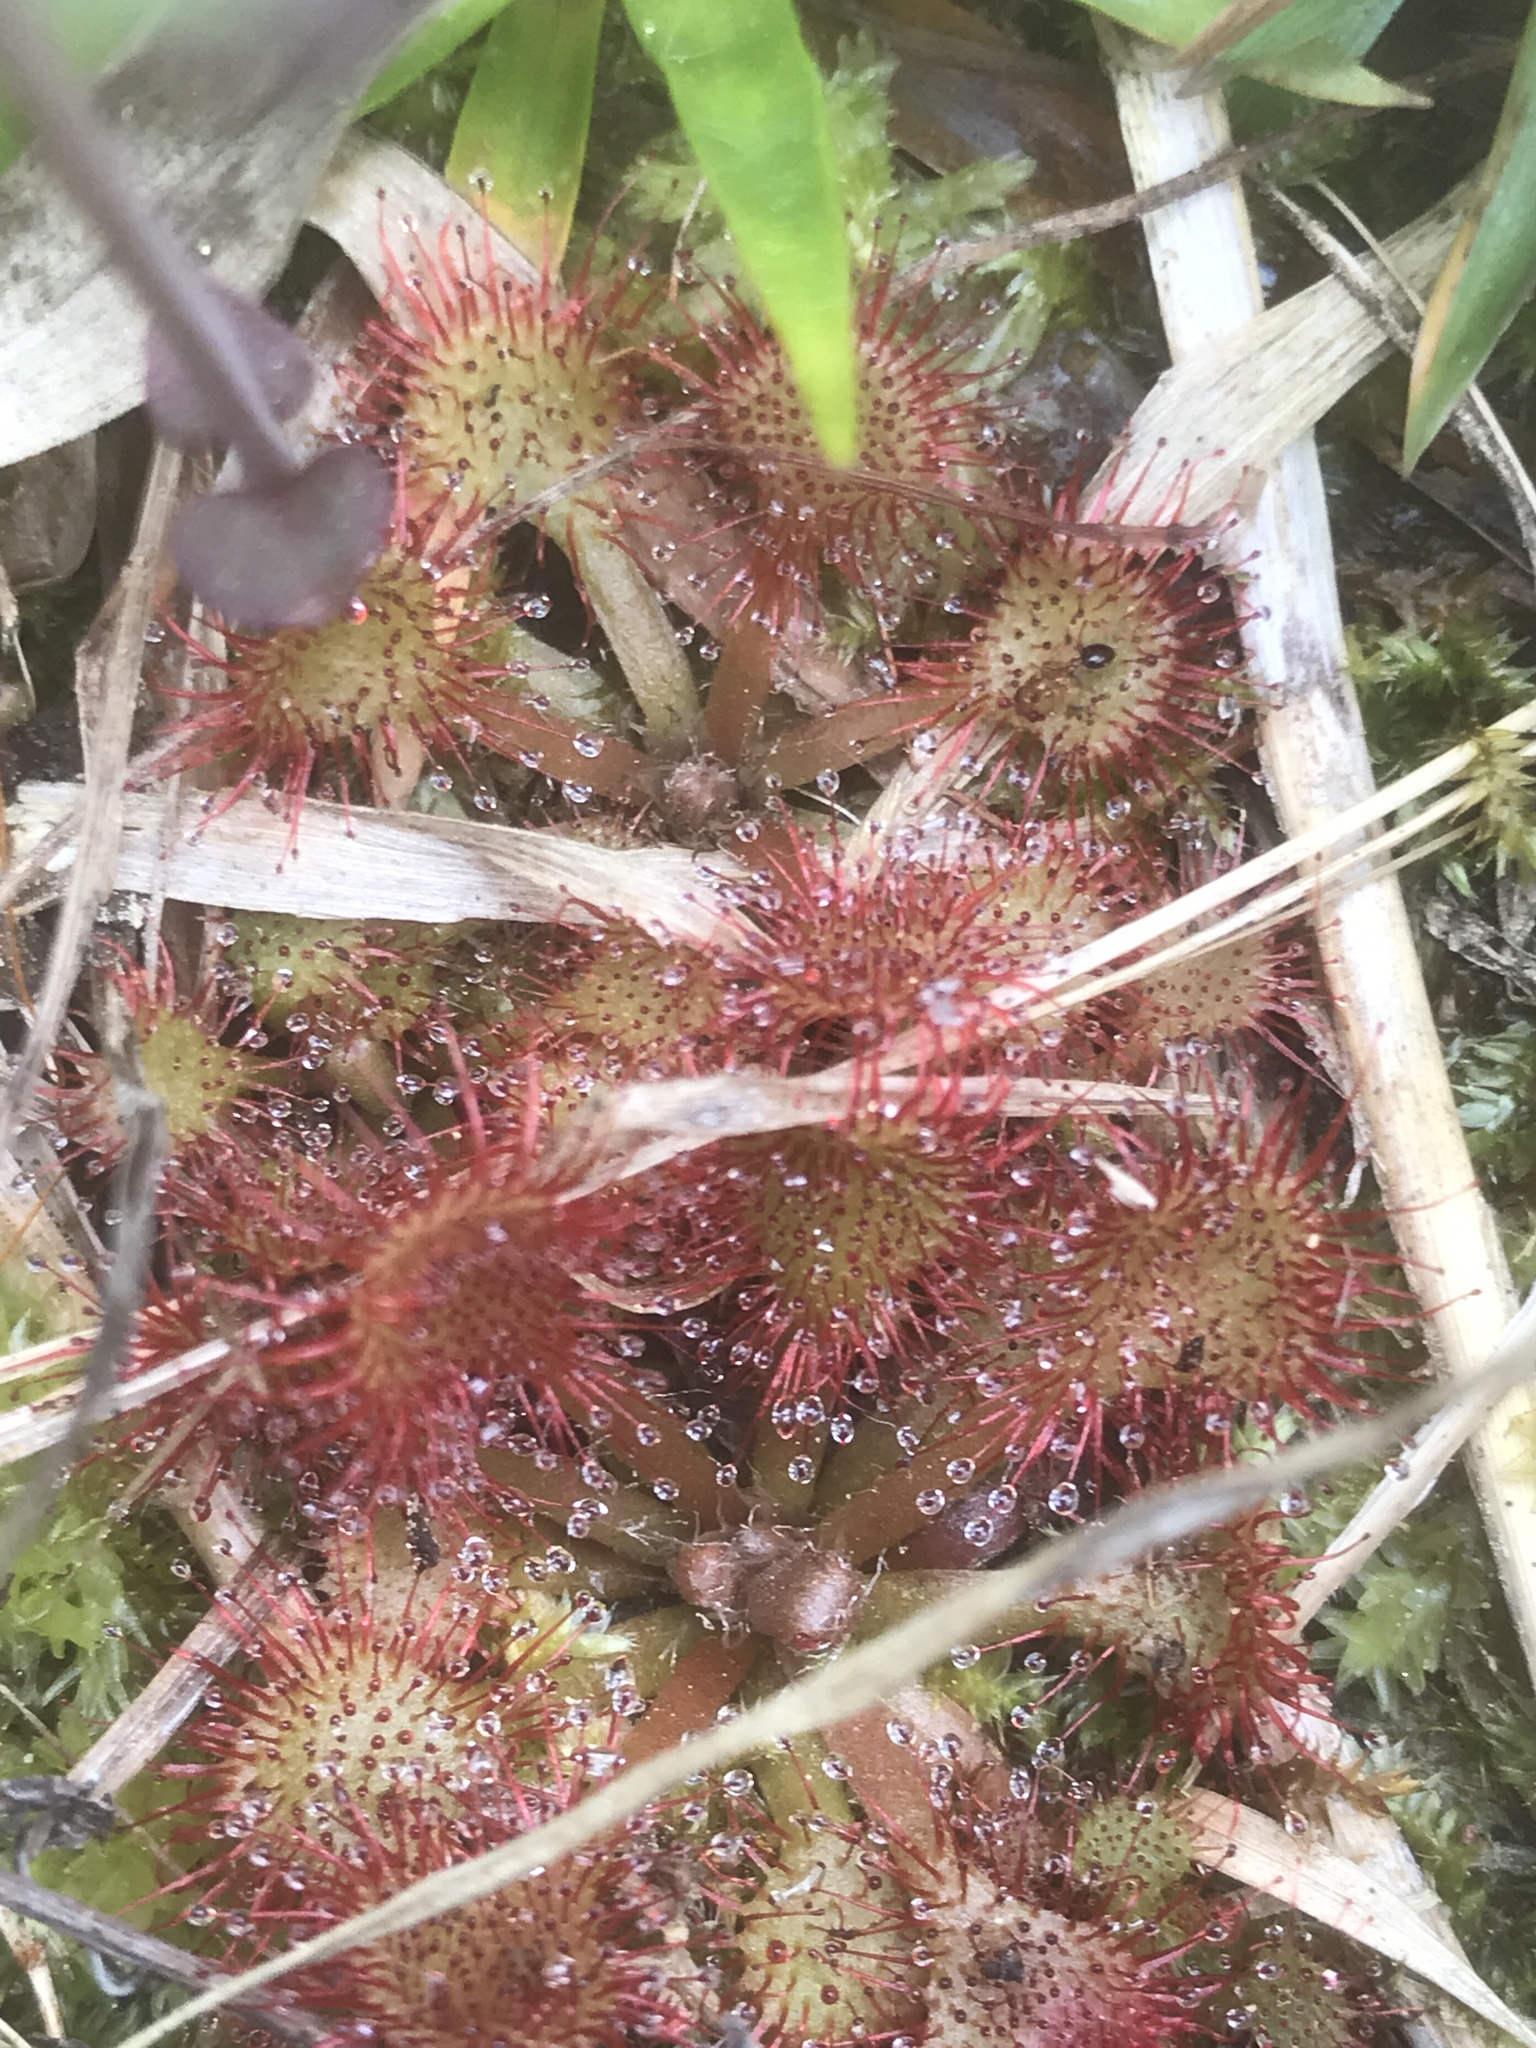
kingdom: Plantae
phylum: Tracheophyta
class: Magnoliopsida
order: Caryophyllales
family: Droseraceae
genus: Drosera
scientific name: Drosera capillaris
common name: Pink sundew
